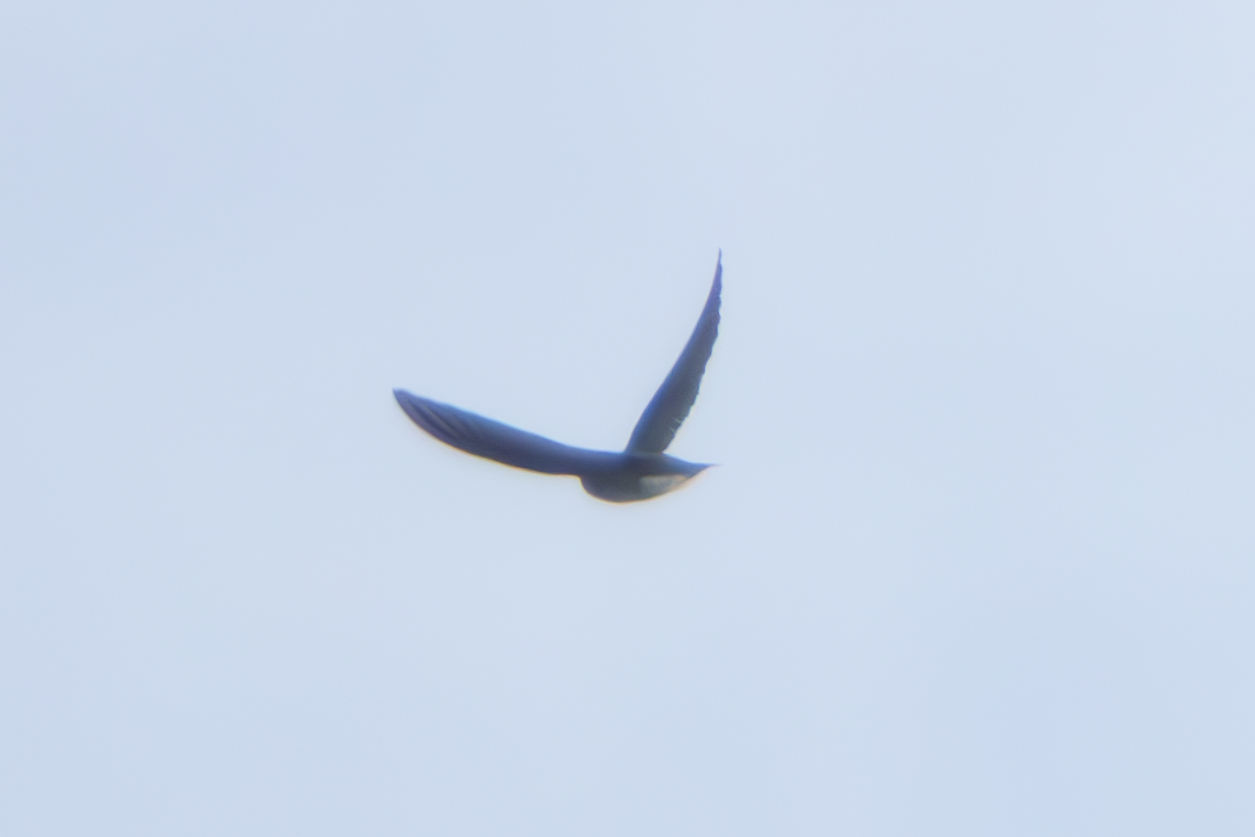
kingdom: Animalia
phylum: Chordata
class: Aves
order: Passeriformes
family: Hirundinidae
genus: Stelgidopteryx
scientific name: Stelgidopteryx serripennis
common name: Northern rough-winged swallow
